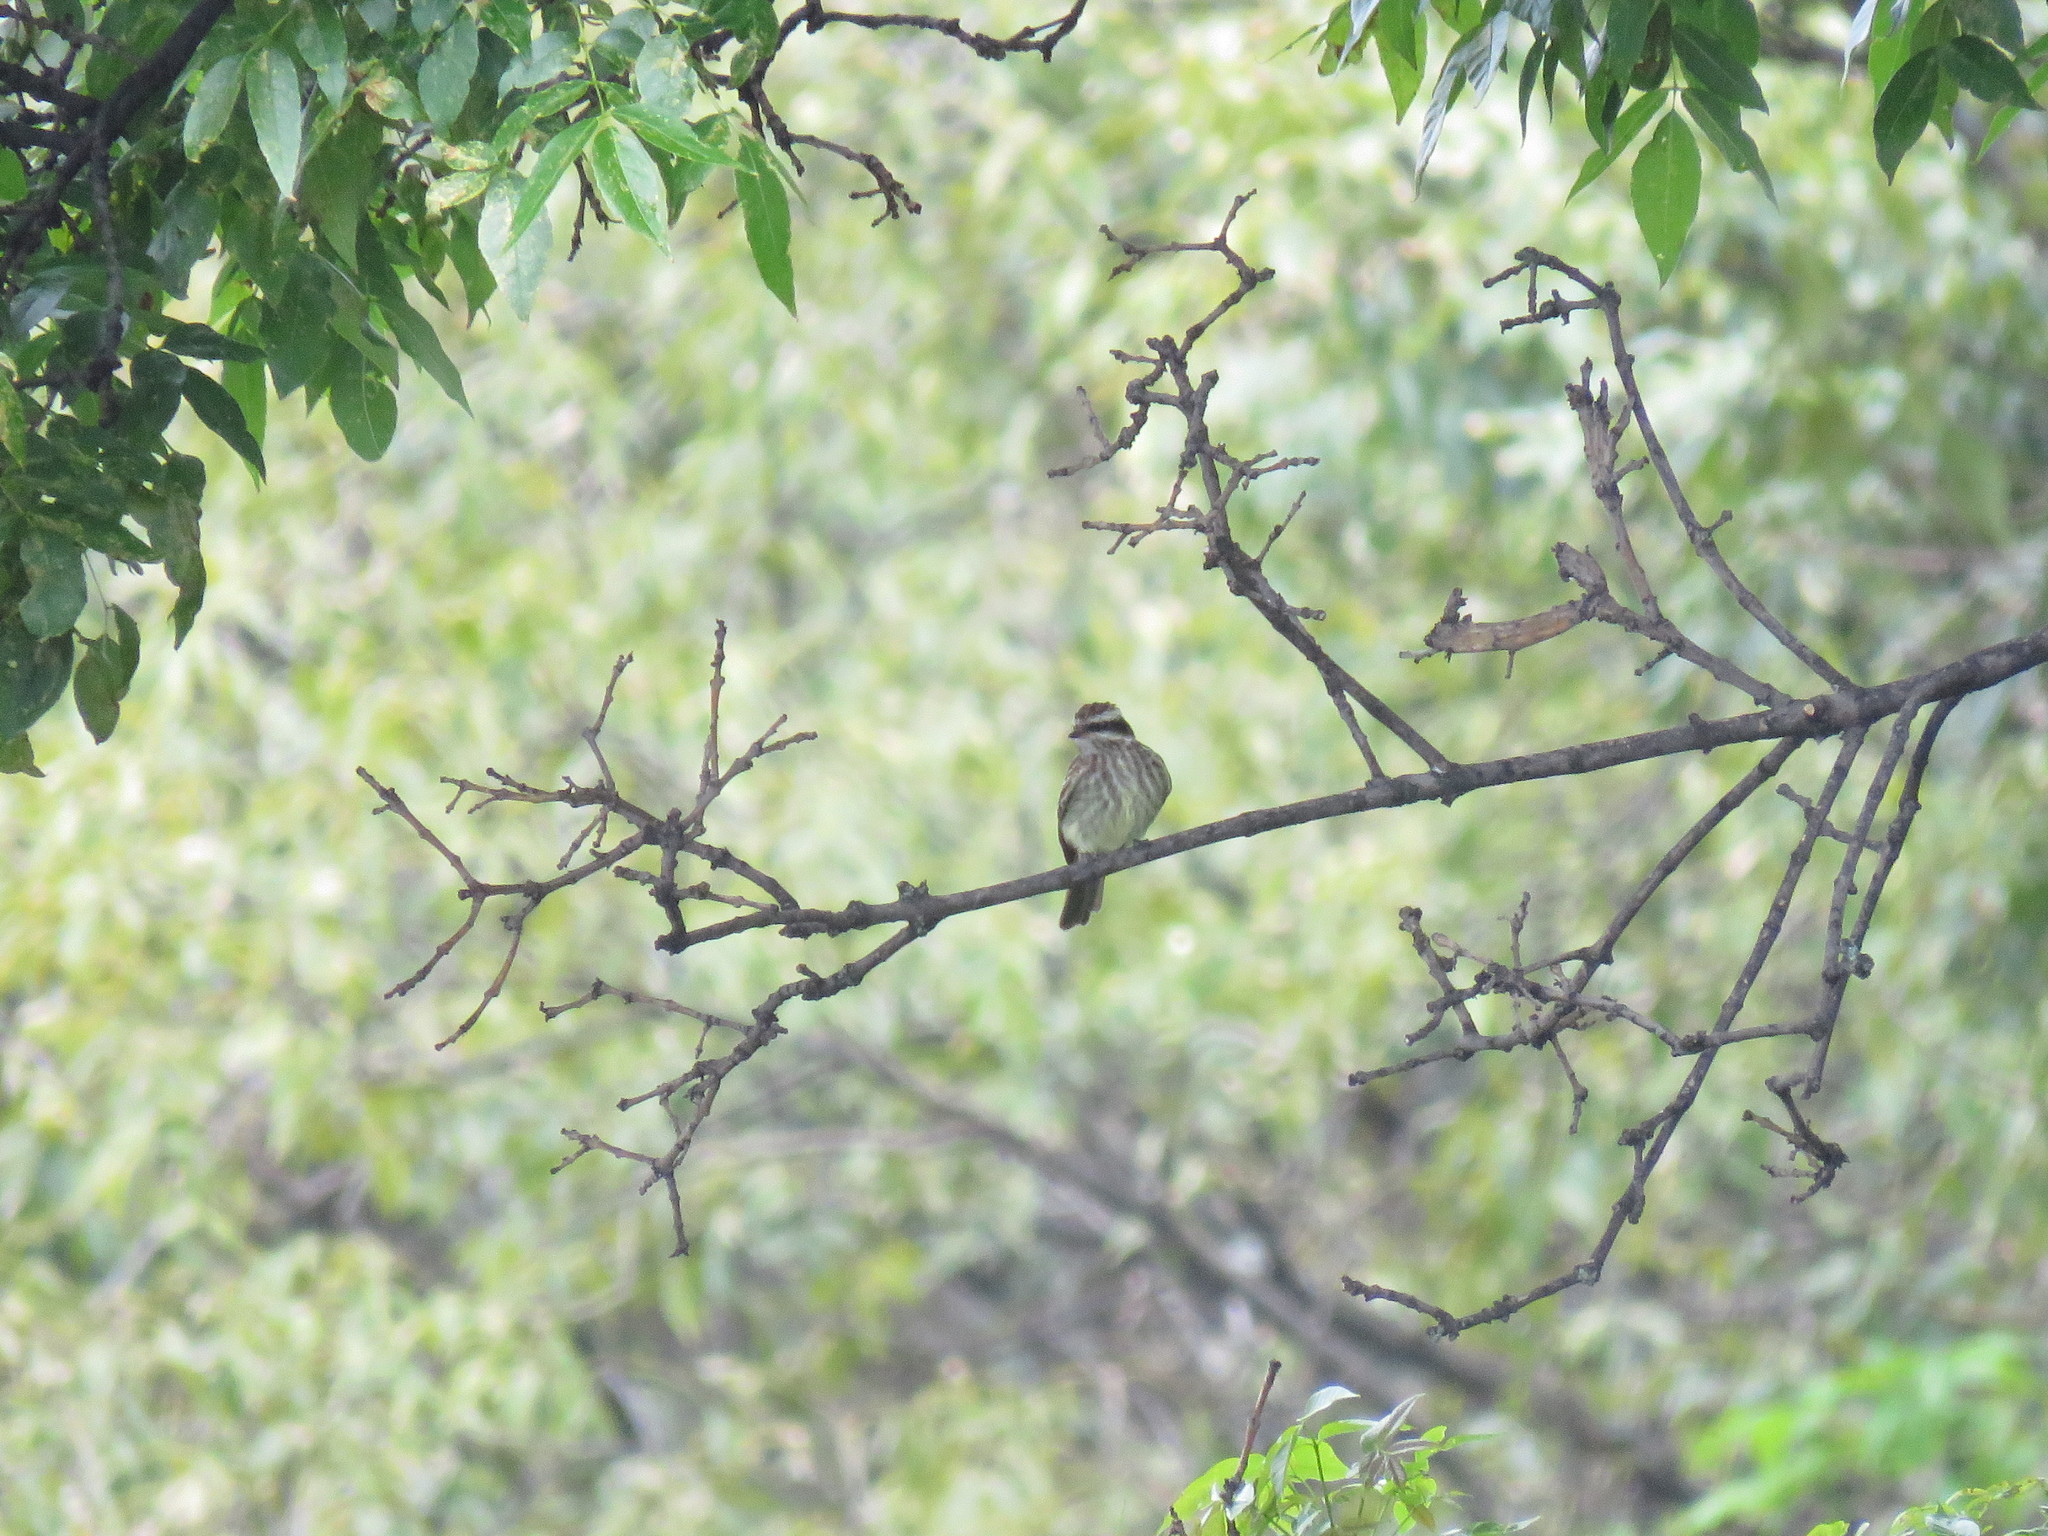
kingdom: Animalia
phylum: Chordata
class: Aves
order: Passeriformes
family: Tyrannidae
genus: Empidonomus
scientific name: Empidonomus varius
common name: Variegated flycatcher
